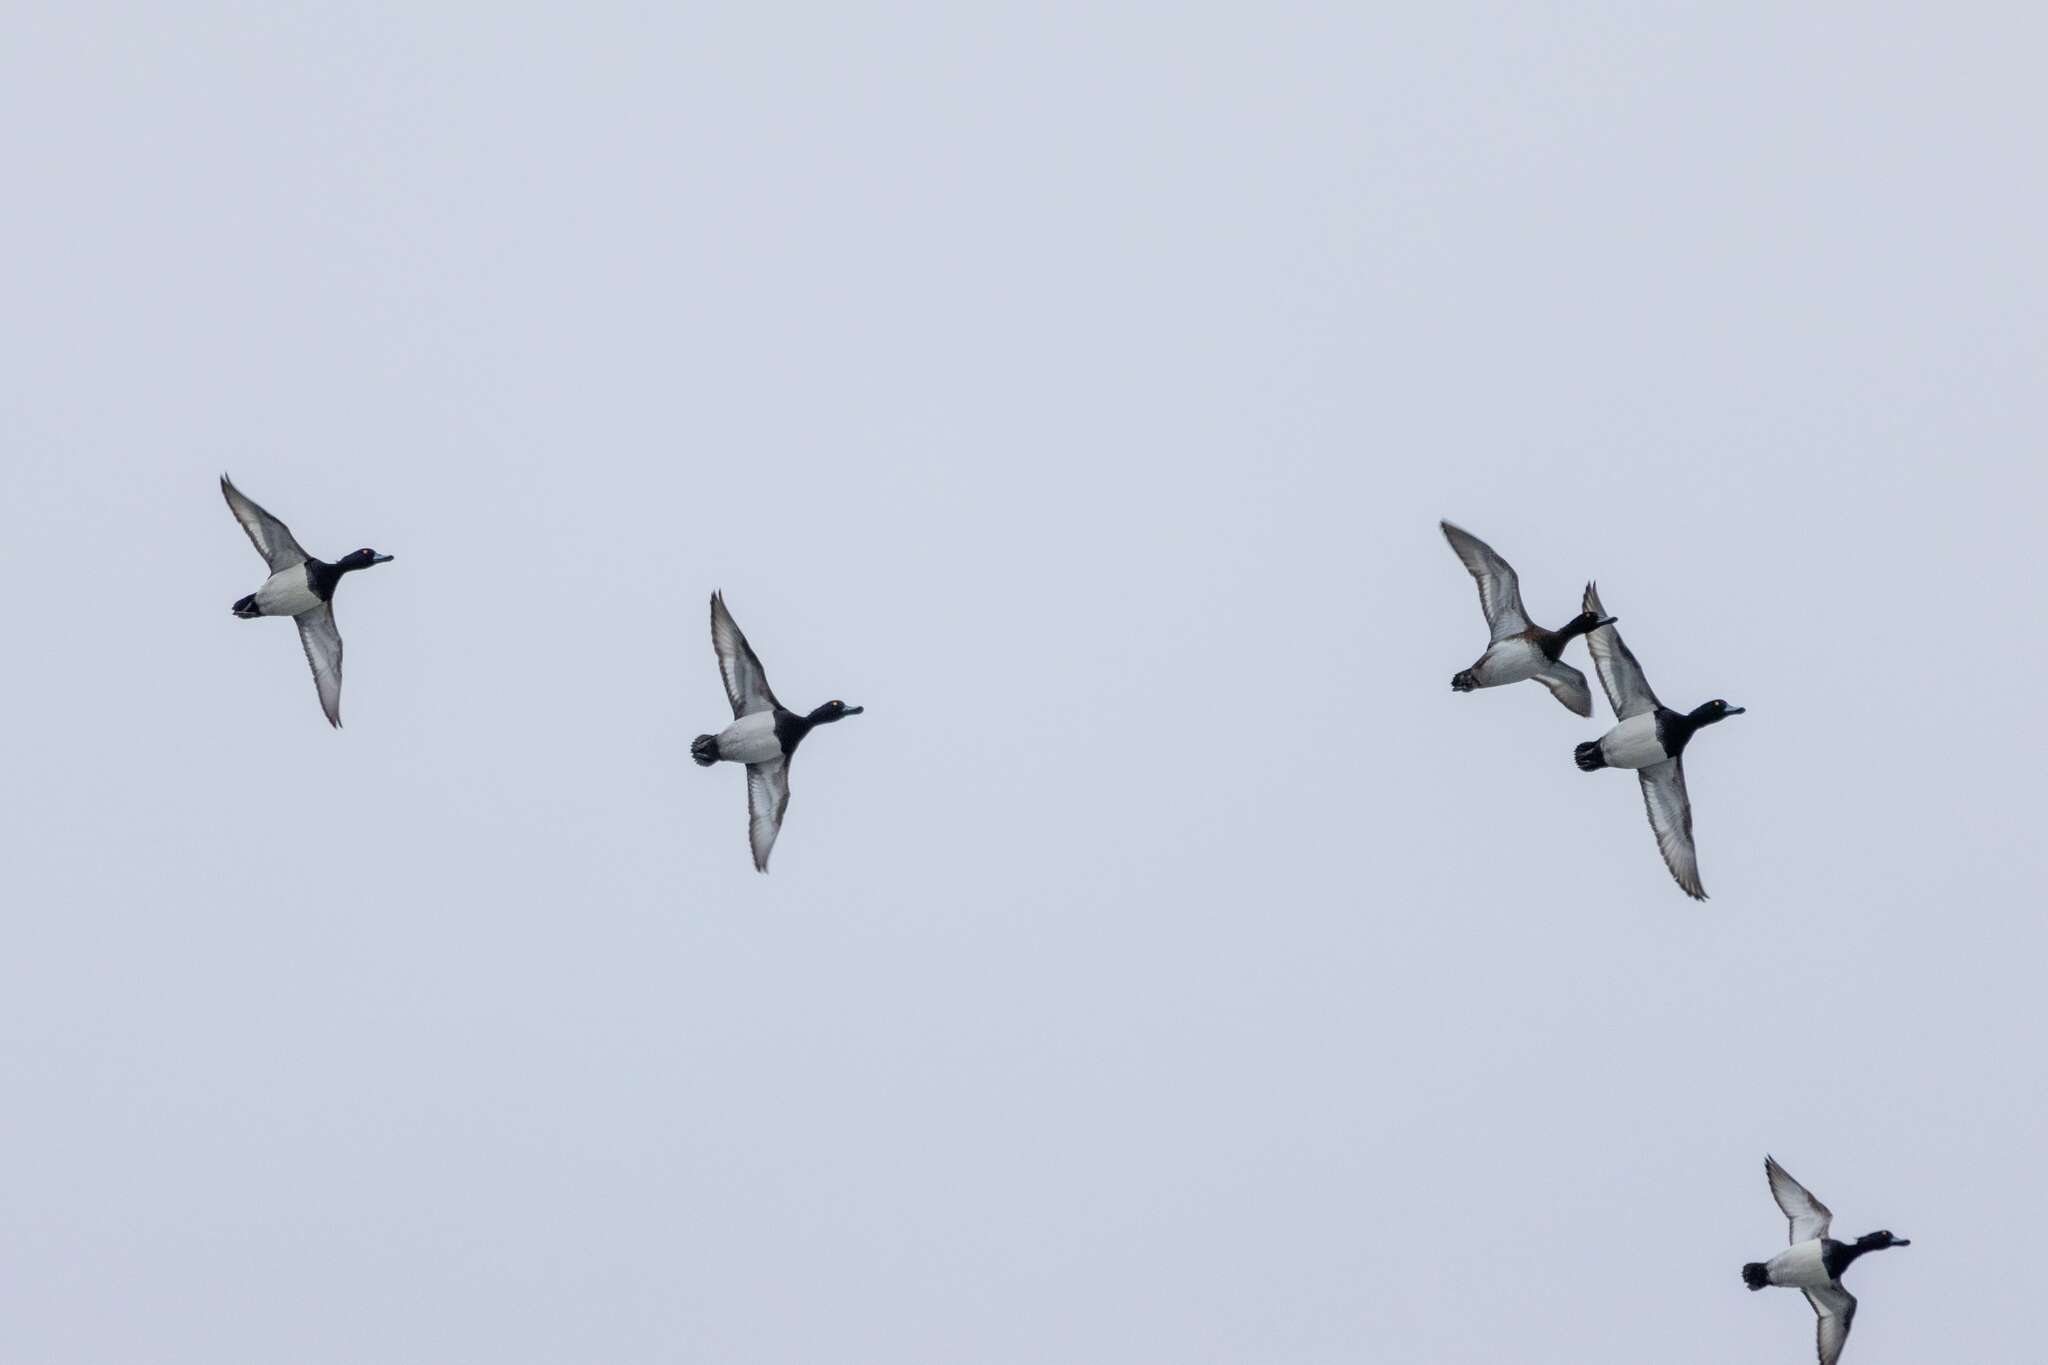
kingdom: Animalia
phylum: Chordata
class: Aves
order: Anseriformes
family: Anatidae
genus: Aythya
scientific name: Aythya fuligula
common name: Tufted duck
